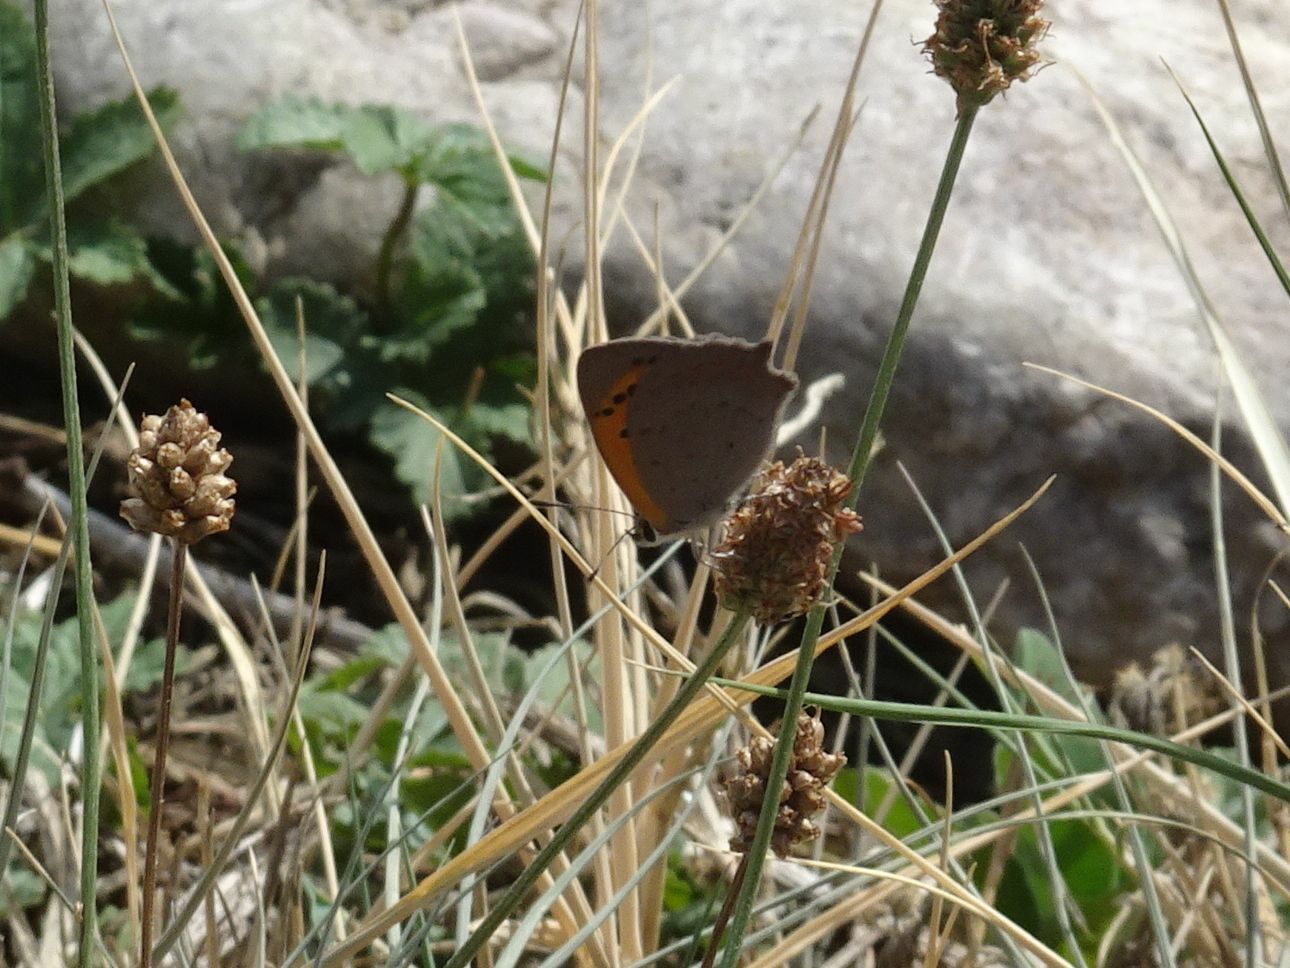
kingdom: Animalia
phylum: Arthropoda
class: Insecta
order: Lepidoptera
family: Lycaenidae
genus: Lycaena
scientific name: Lycaena phlaeas
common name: Small copper
